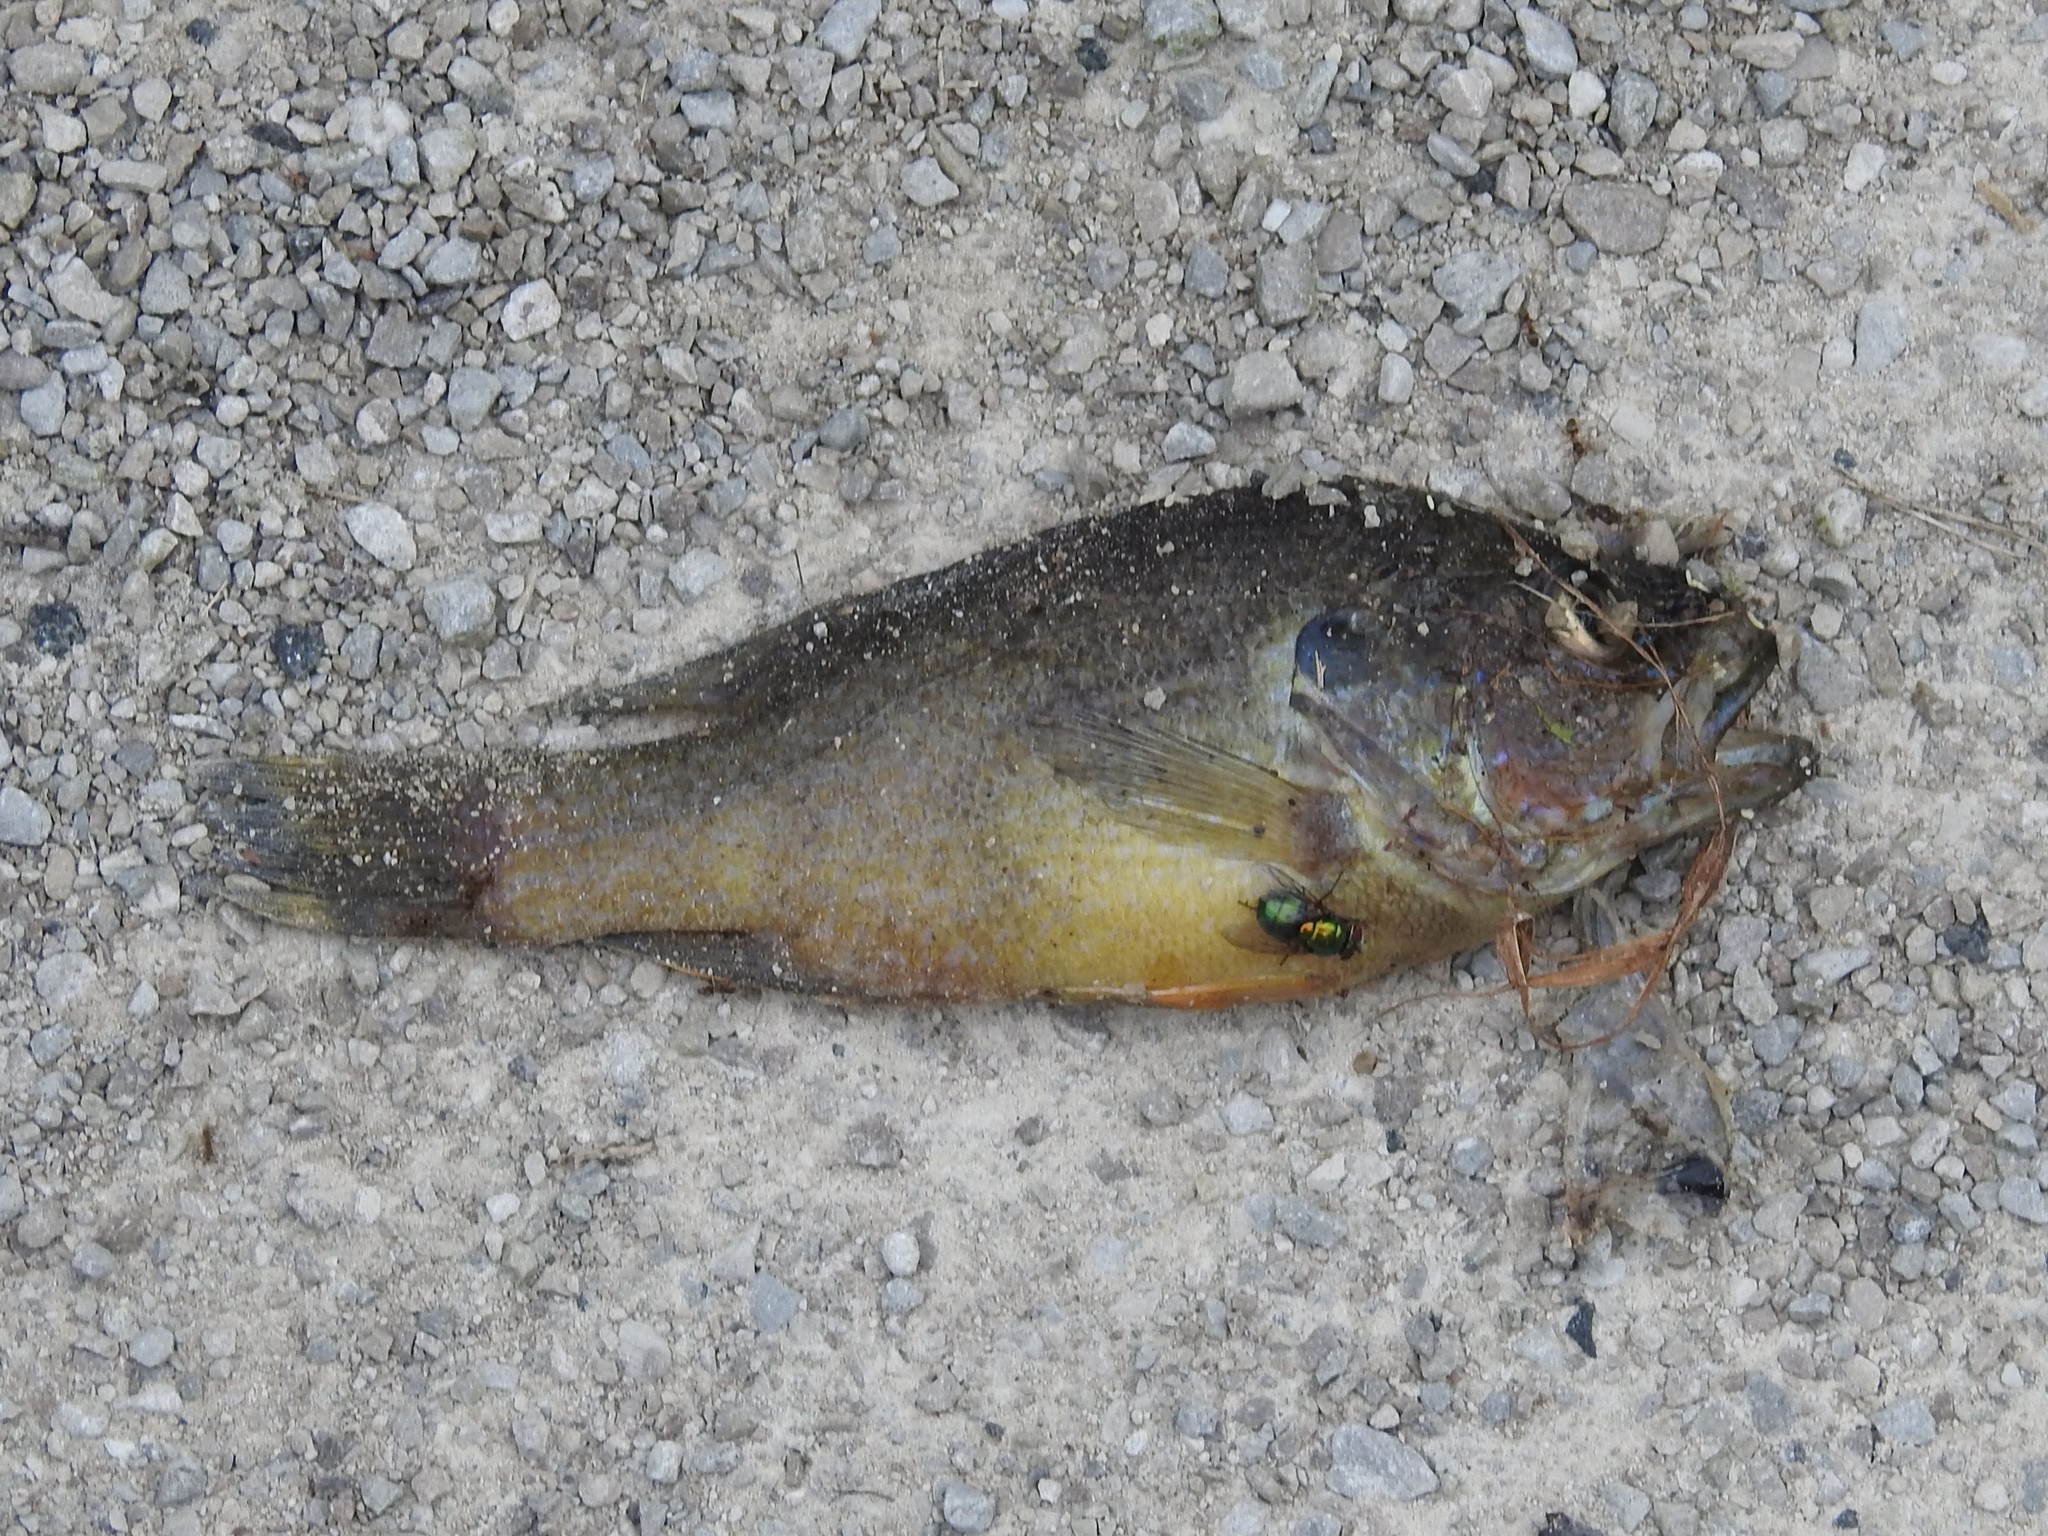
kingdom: Animalia
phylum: Chordata
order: Perciformes
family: Centrarchidae
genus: Lepomis
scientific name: Lepomis cyanellus
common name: Green sunfish
